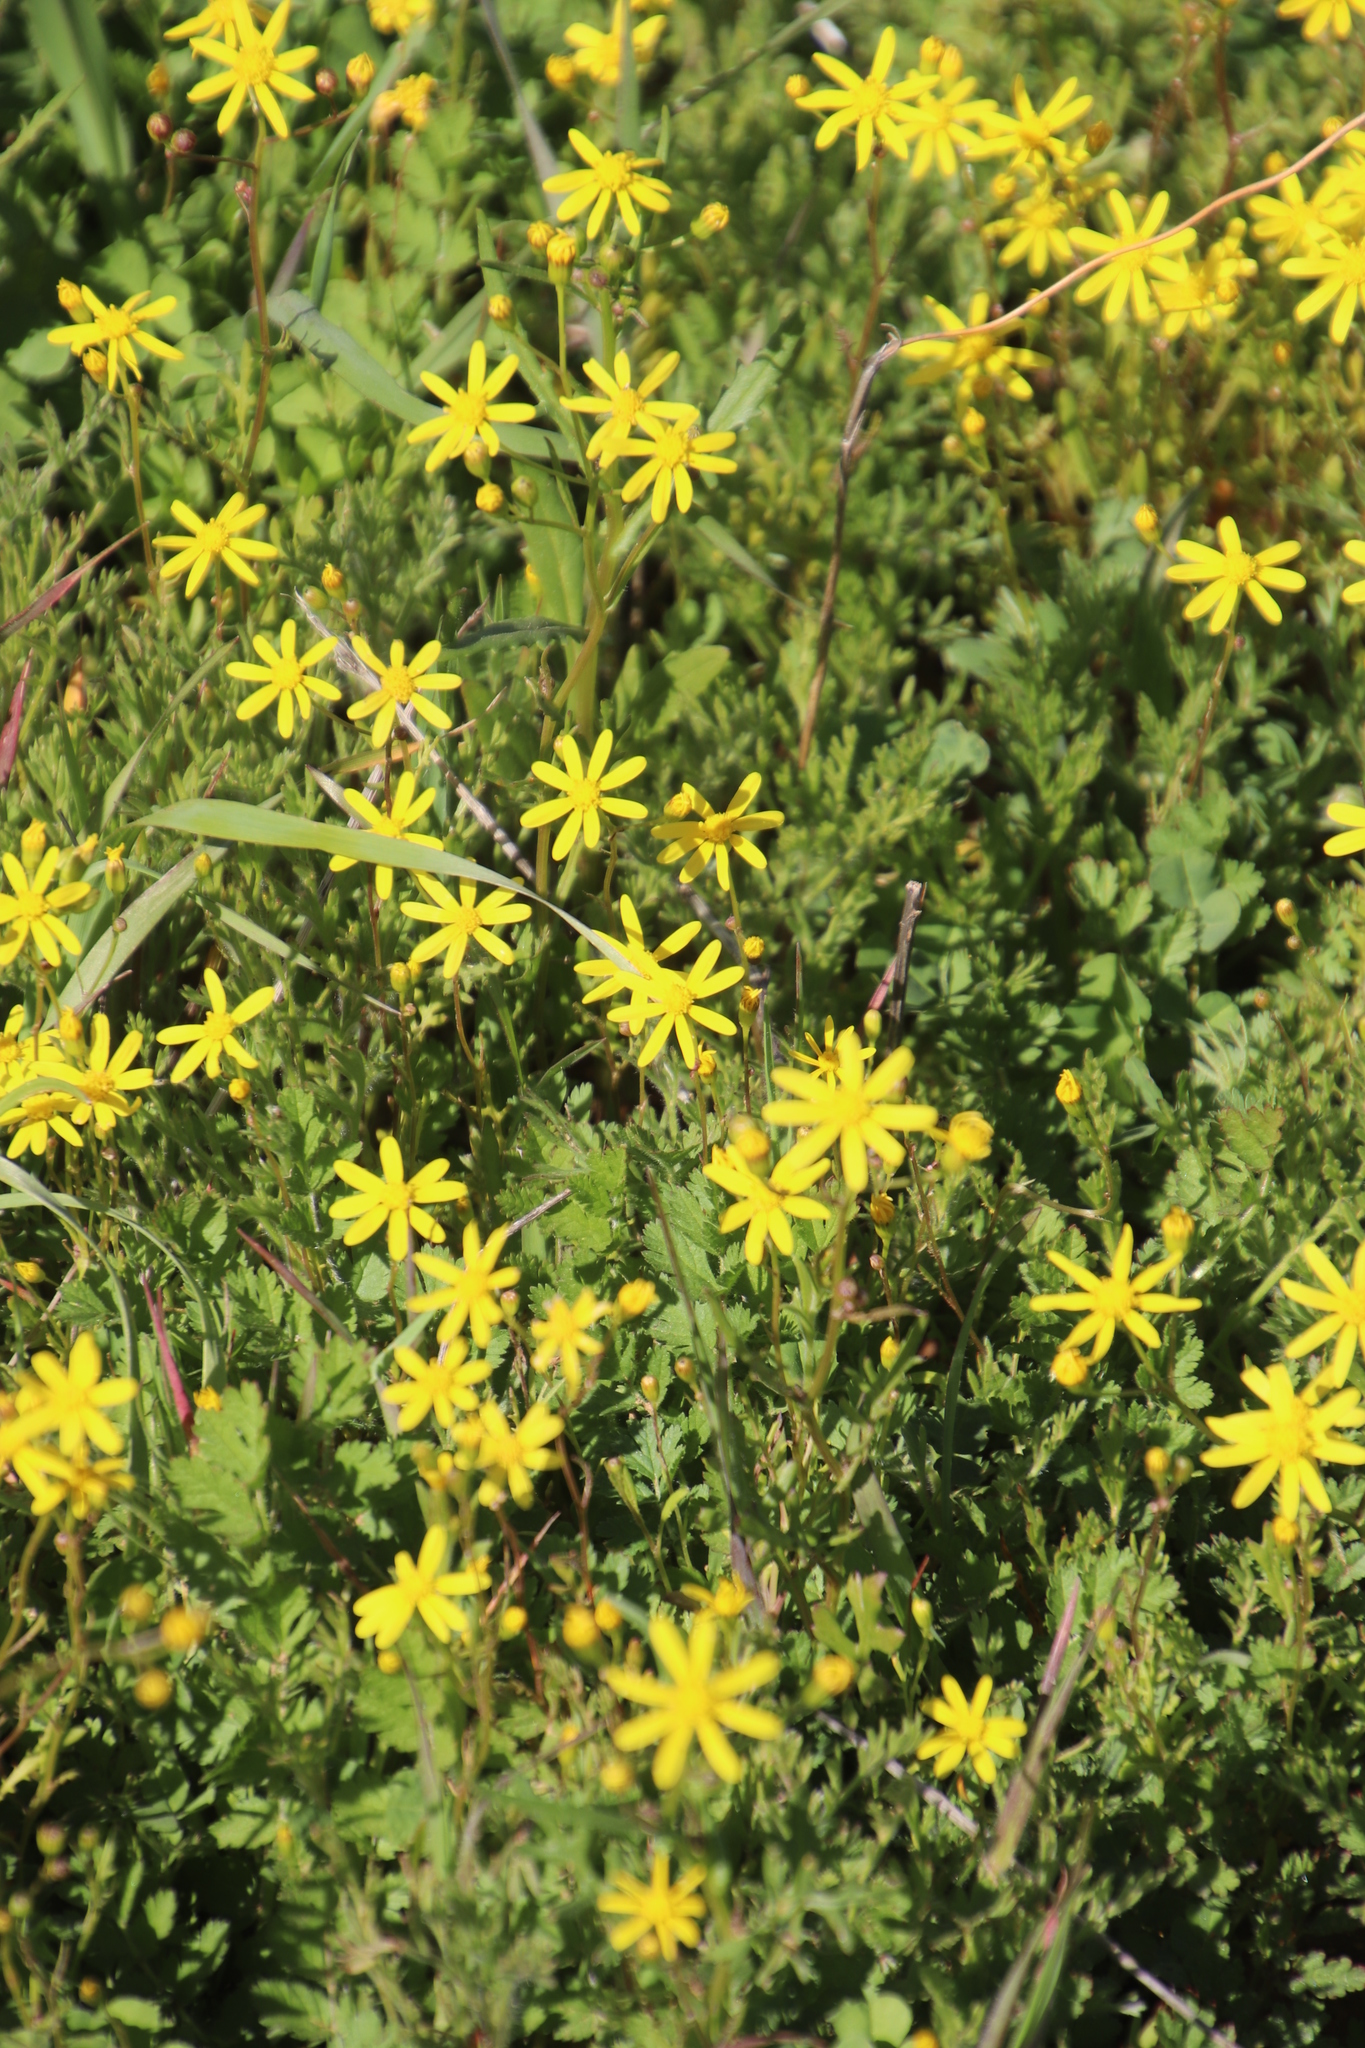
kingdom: Plantae
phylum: Tracheophyta
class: Magnoliopsida
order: Asterales
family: Asteraceae
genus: Senecio
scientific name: Senecio abruptus
